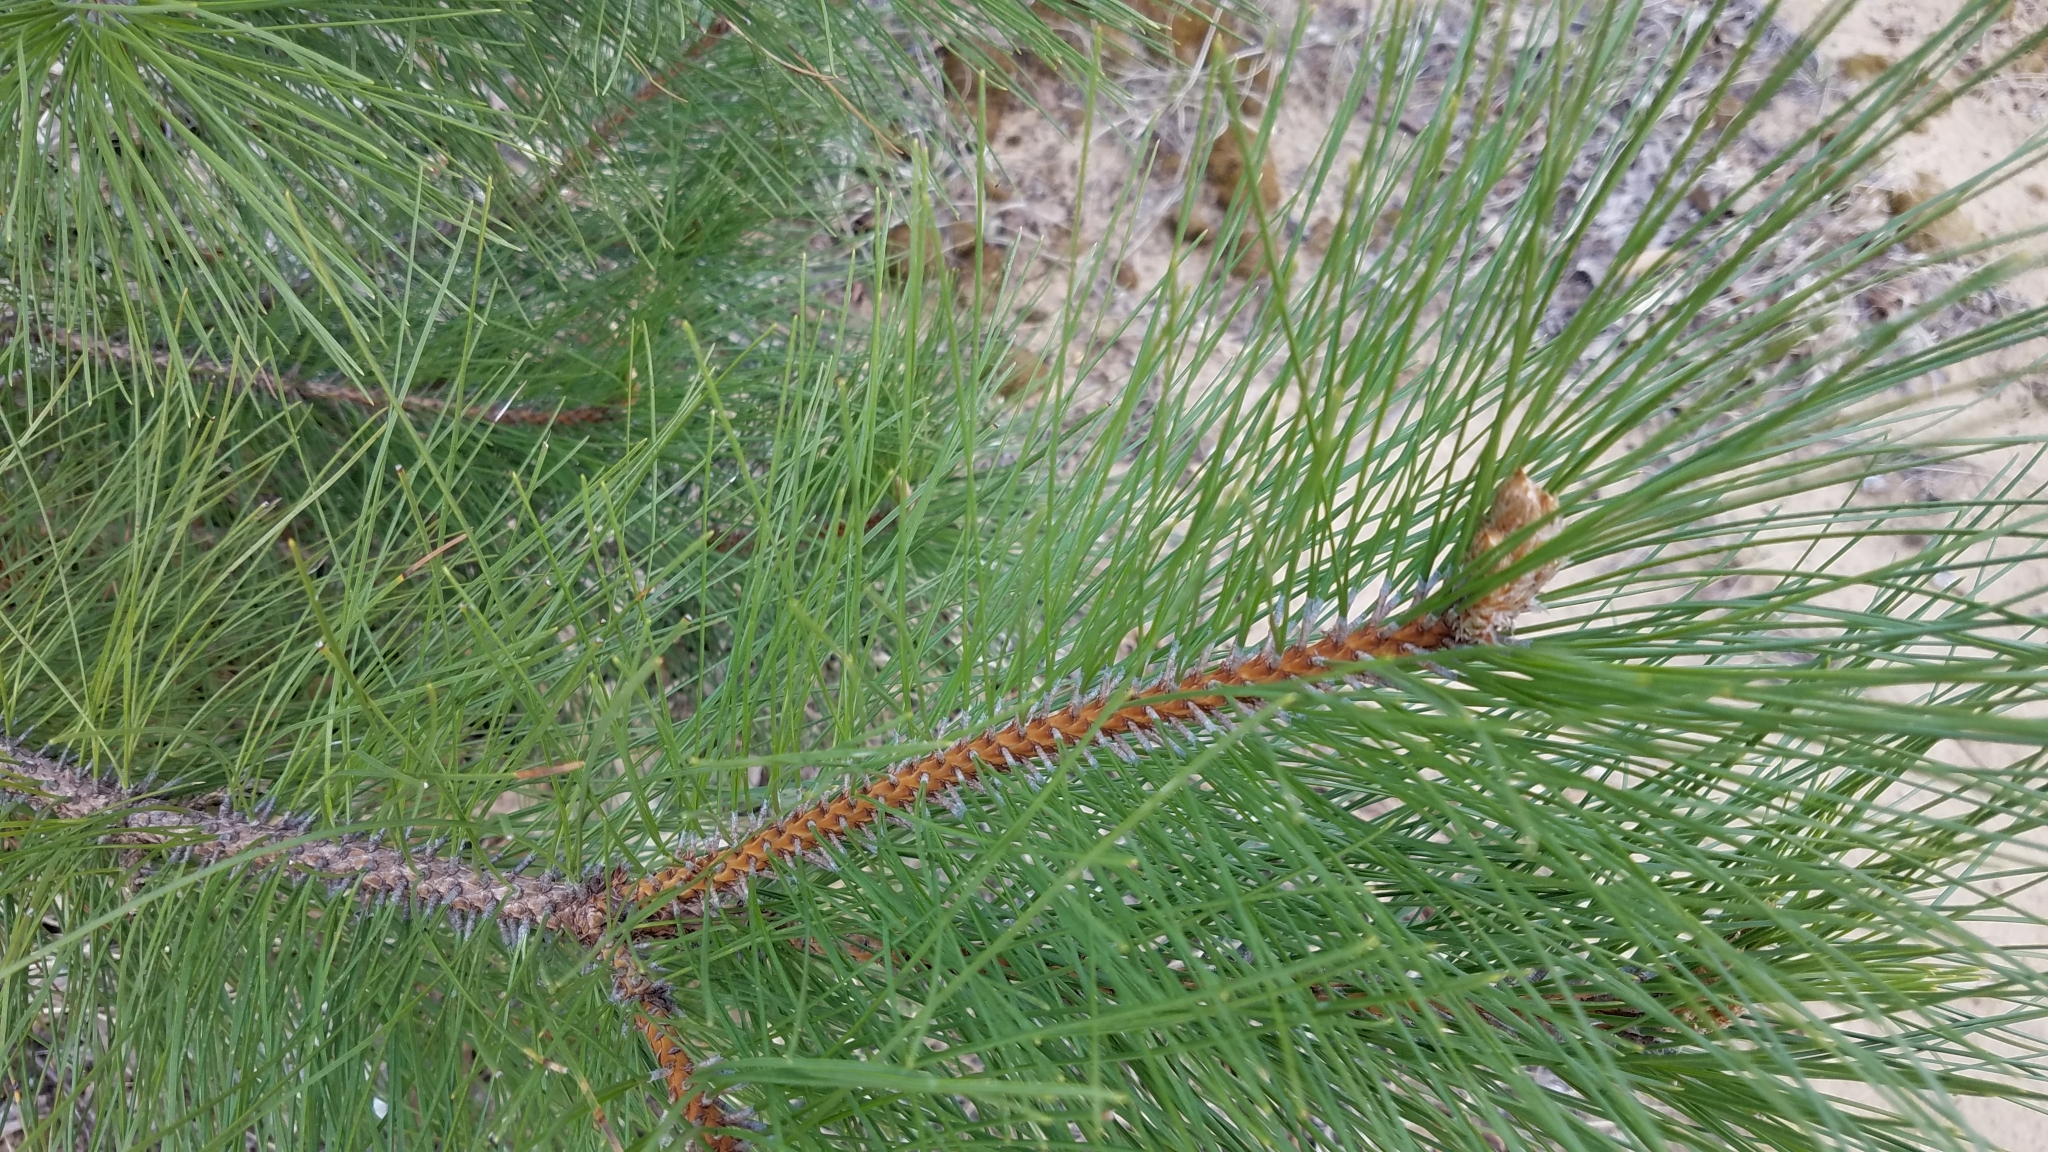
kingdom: Plantae
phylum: Tracheophyta
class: Pinopsida
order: Pinales
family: Pinaceae
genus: Pinus
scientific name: Pinus resinosa
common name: Norway pine
